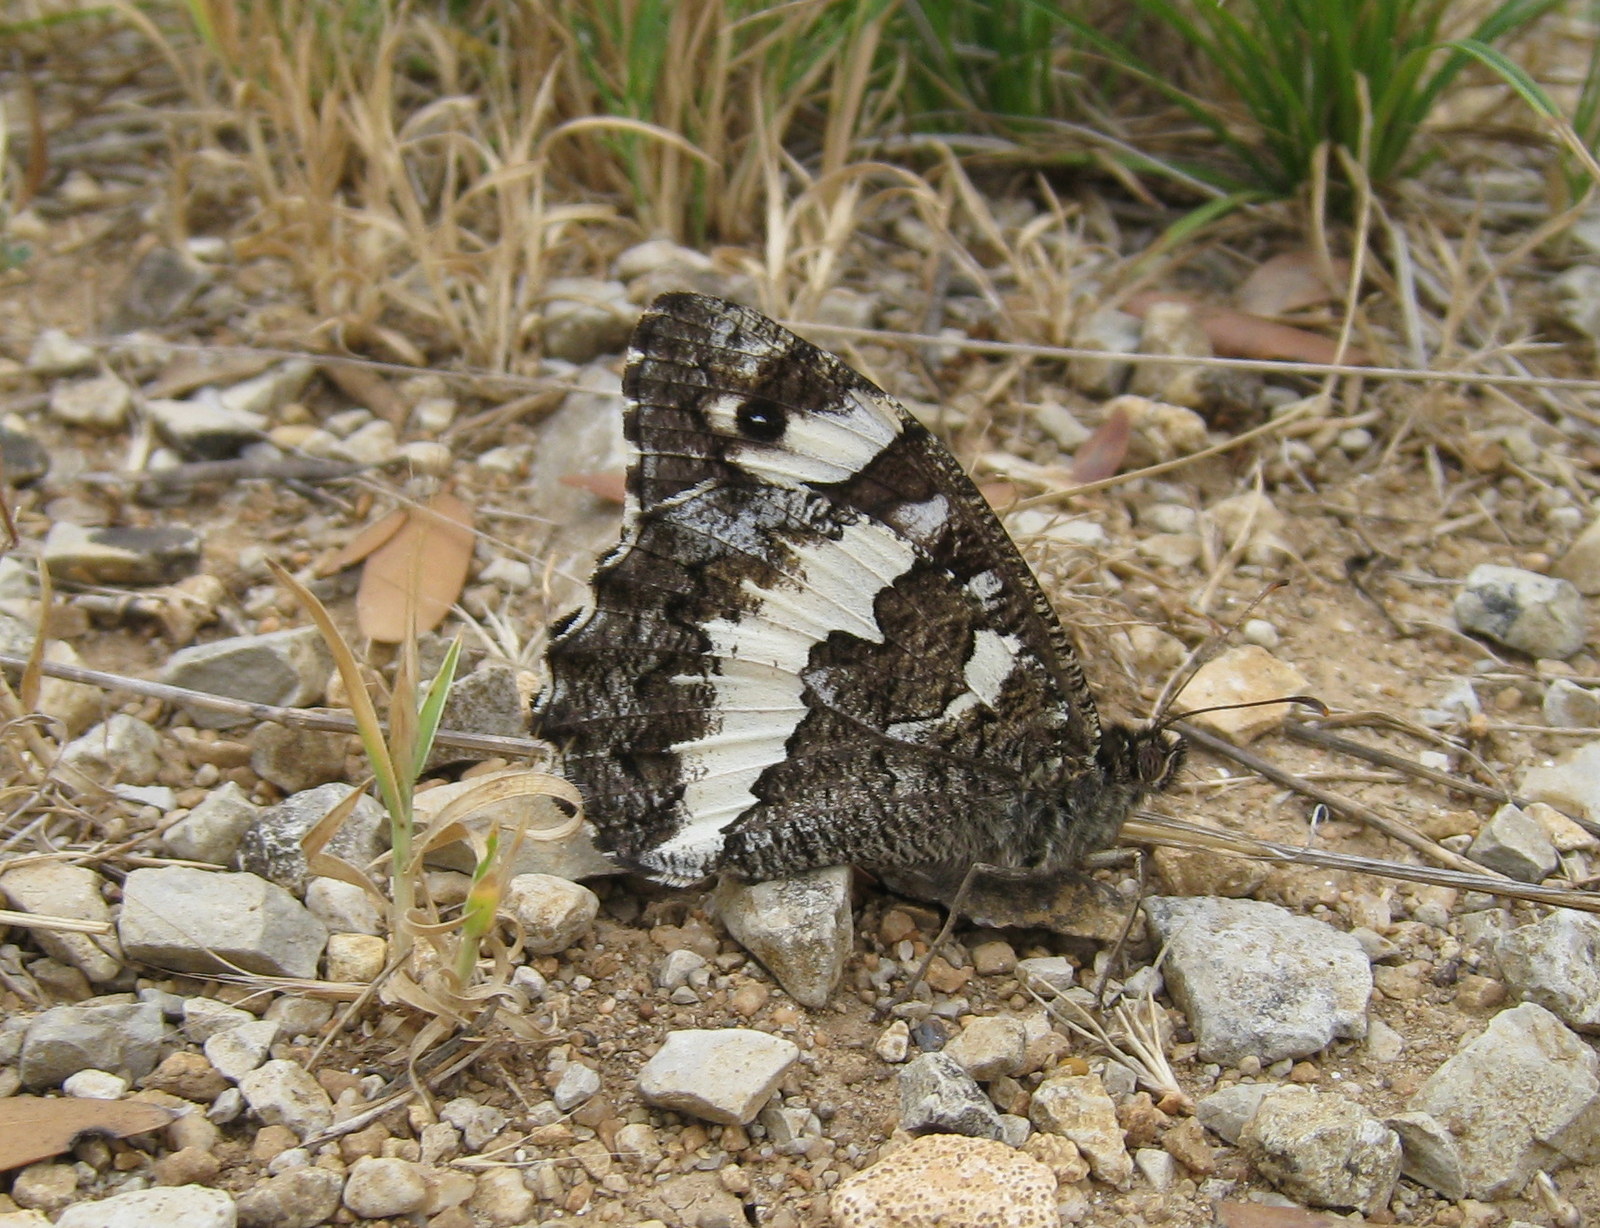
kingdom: Animalia
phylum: Arthropoda
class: Insecta
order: Lepidoptera
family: Lycaenidae
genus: Loweia
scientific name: Loweia tityrus
